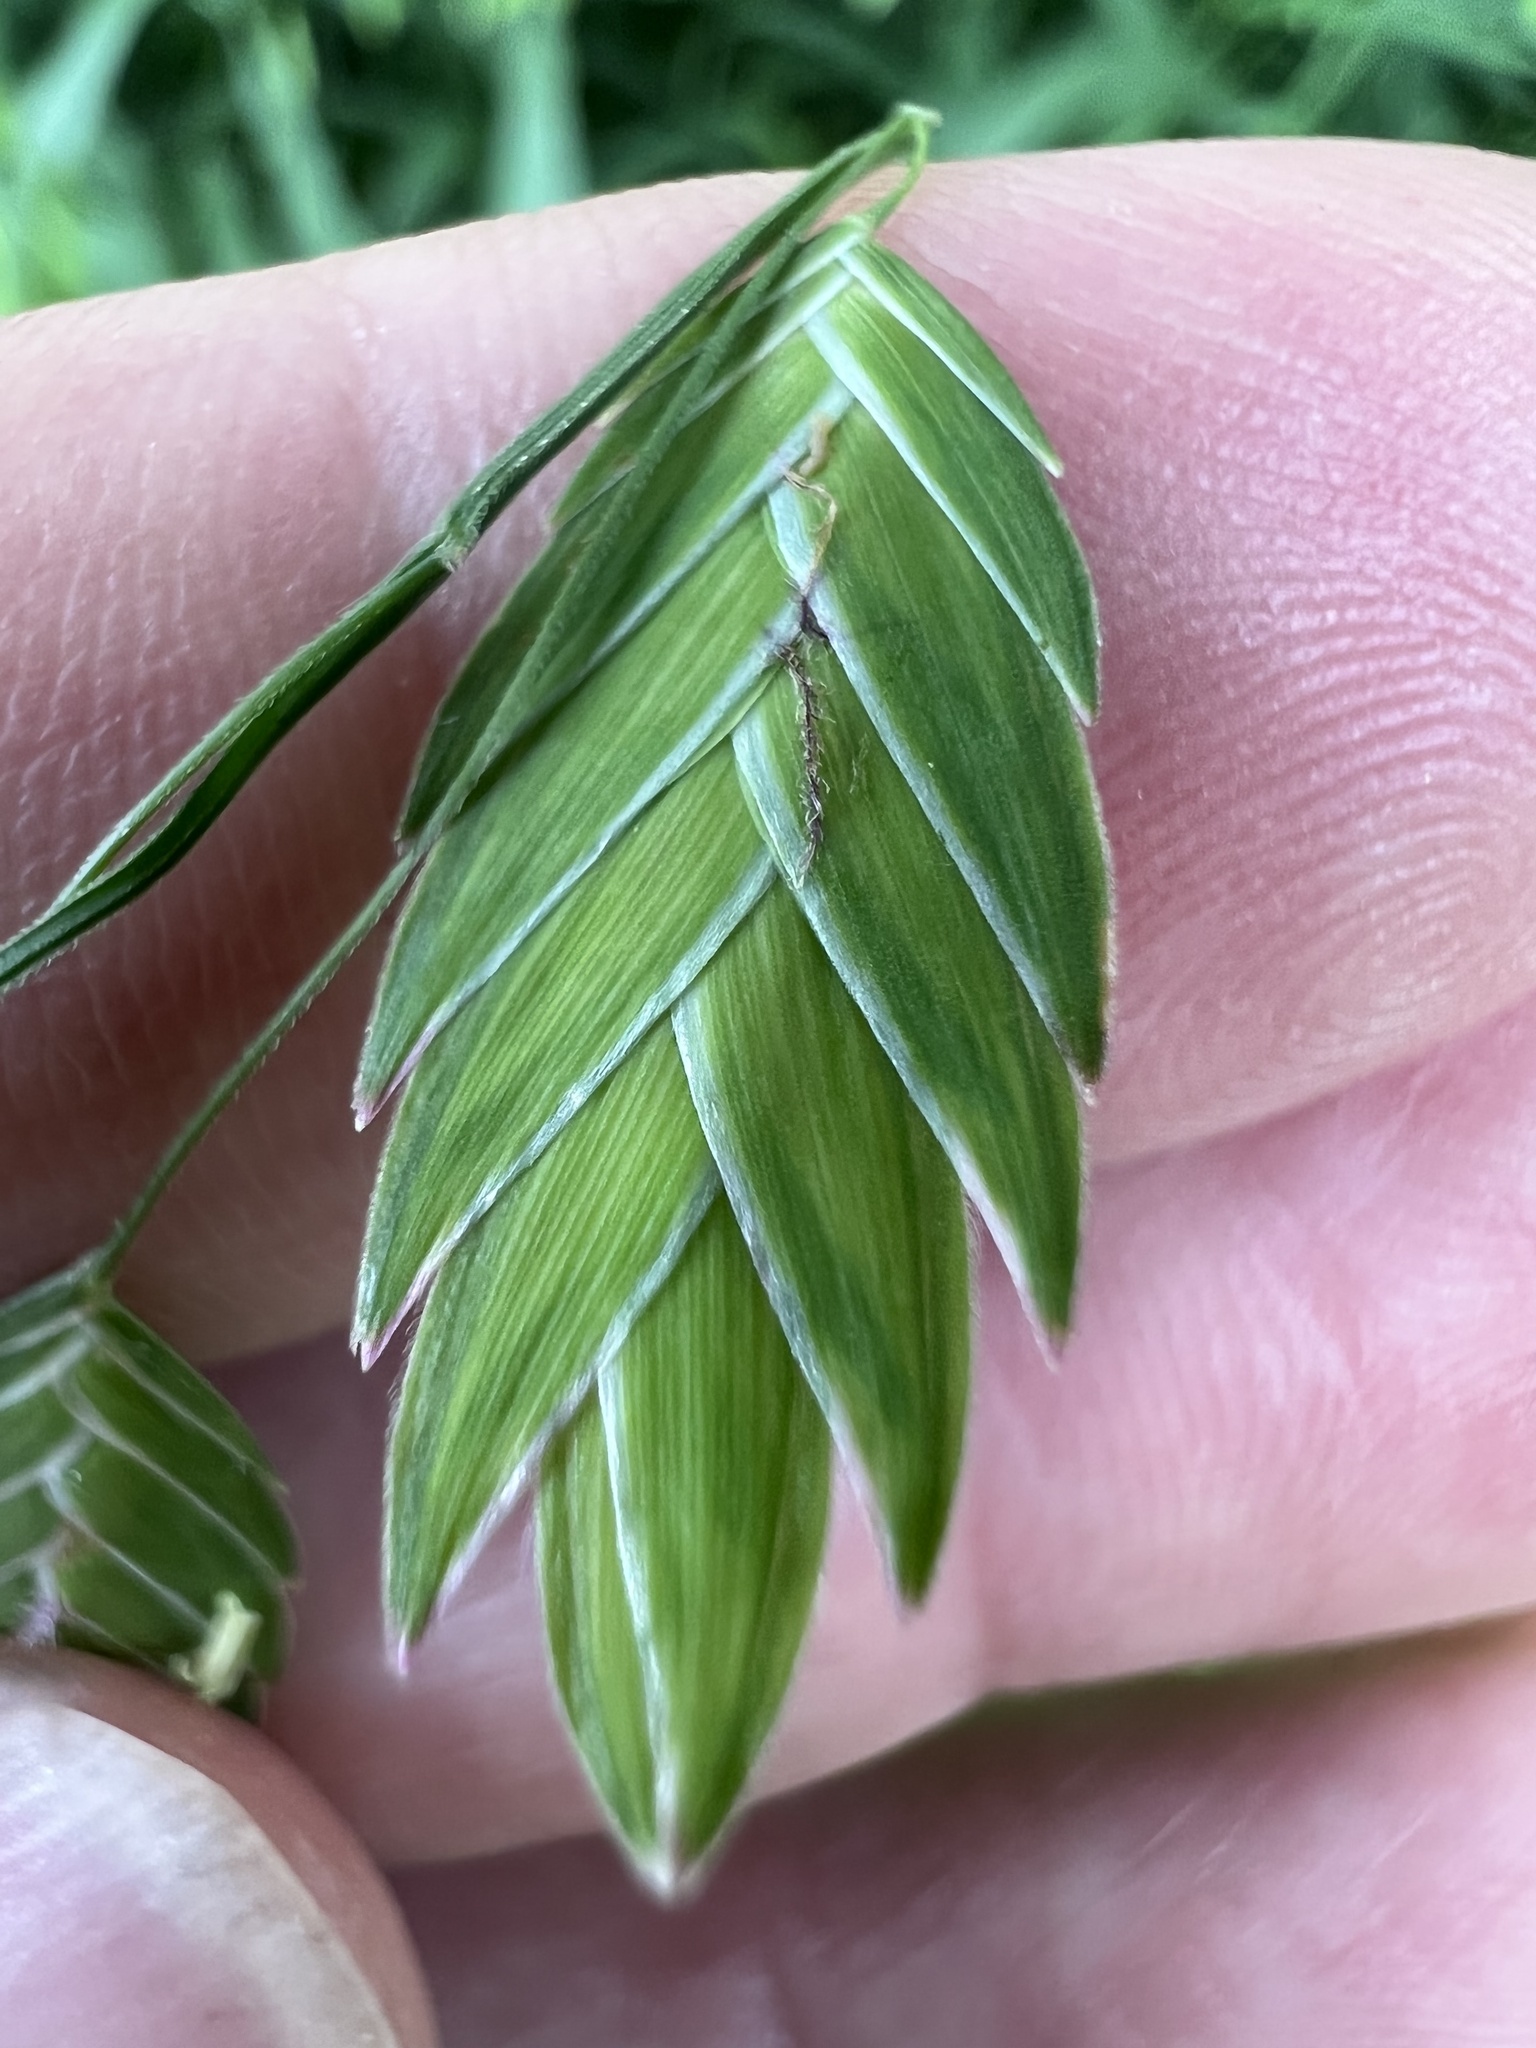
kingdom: Plantae
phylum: Tracheophyta
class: Liliopsida
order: Poales
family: Poaceae
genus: Chasmanthium
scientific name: Chasmanthium latifolium
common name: Broad-leaved chasmanthium
